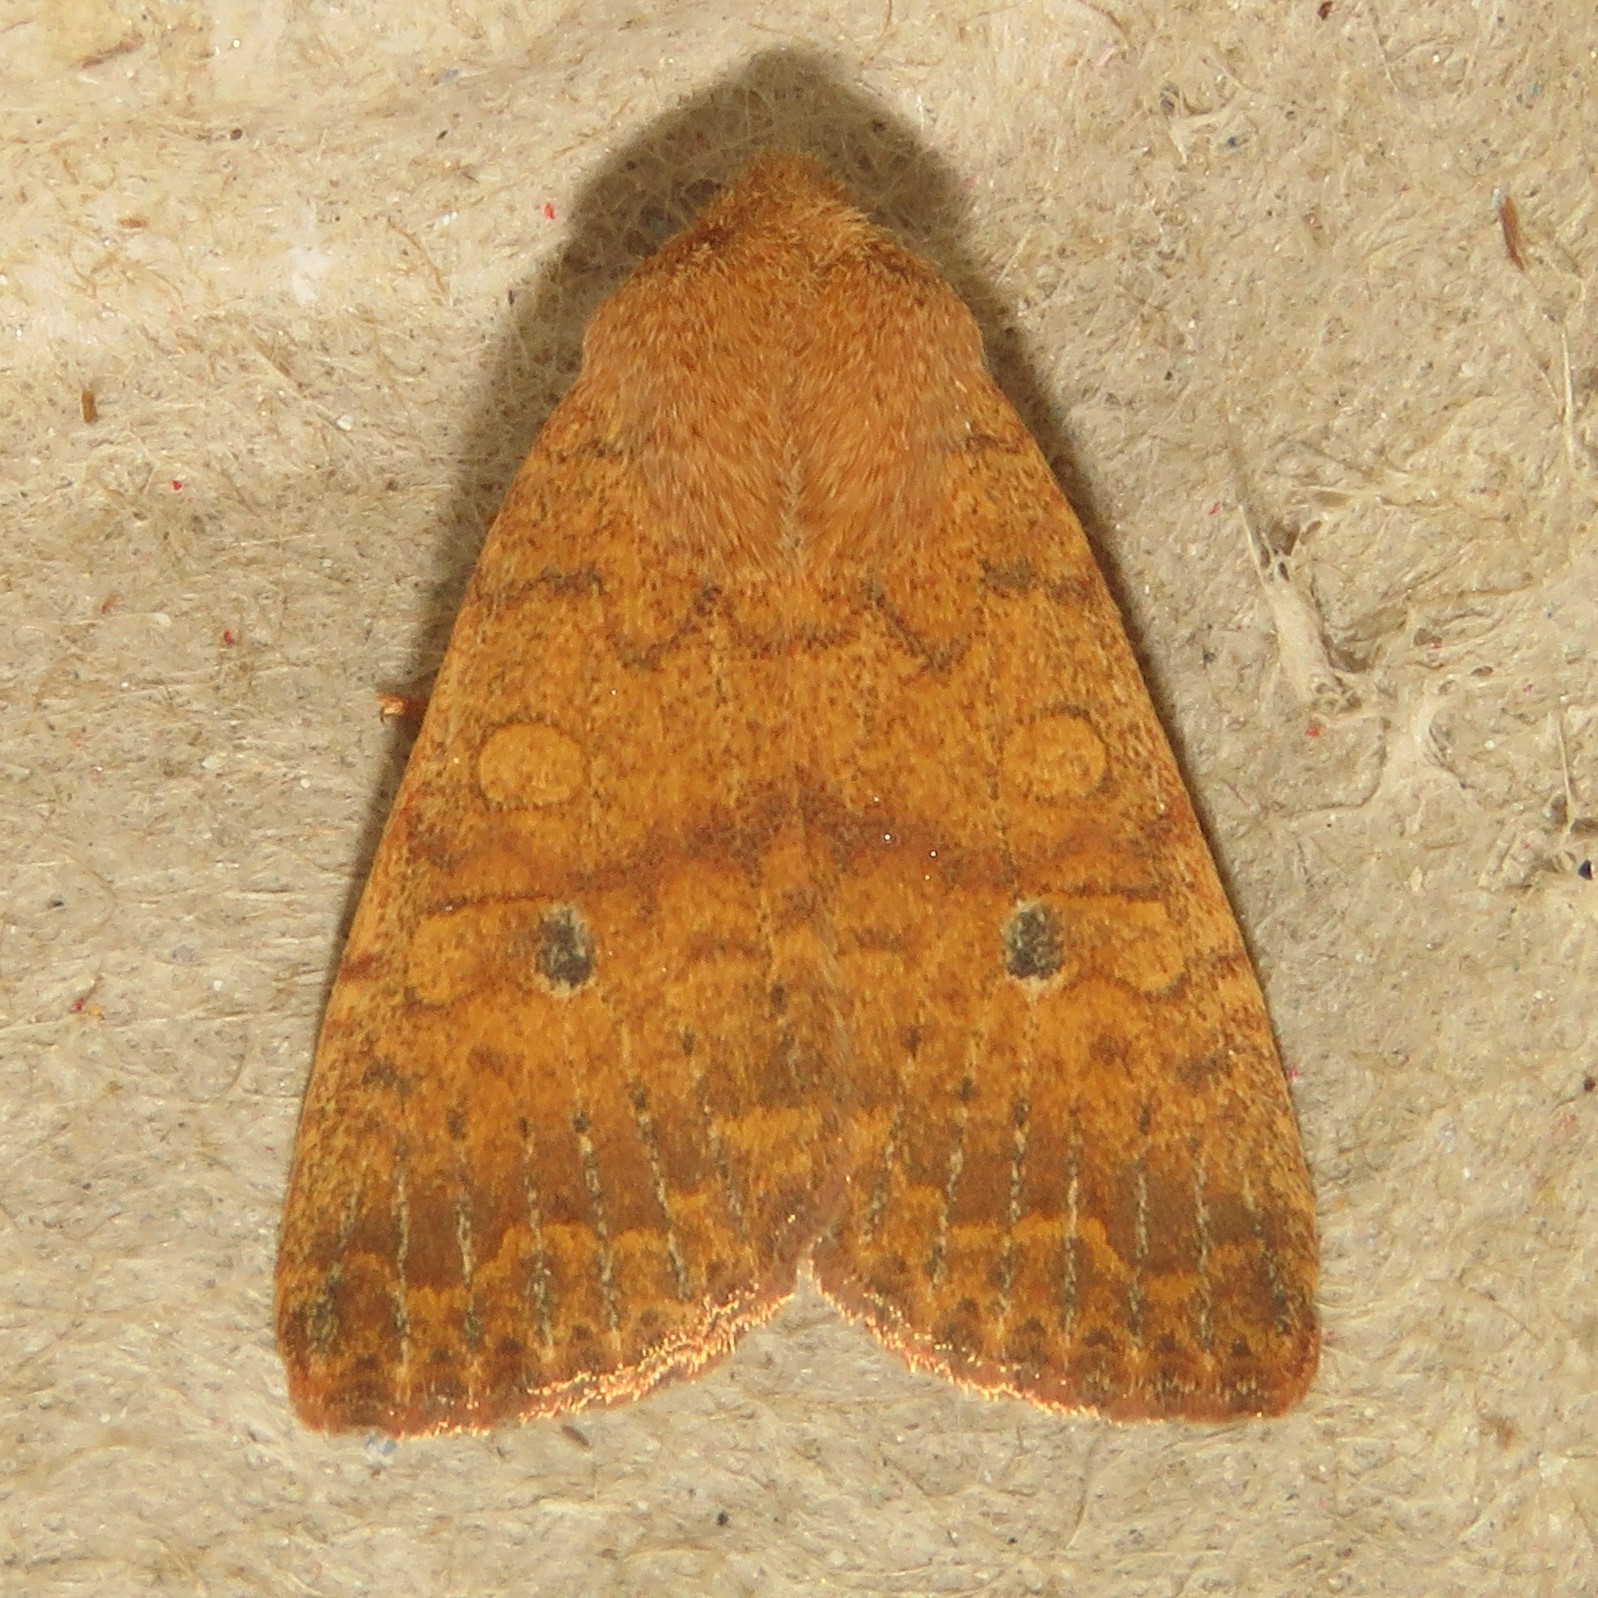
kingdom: Animalia
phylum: Arthropoda
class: Insecta
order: Lepidoptera
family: Noctuidae
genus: Agrochola
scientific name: Agrochola bicolorago
